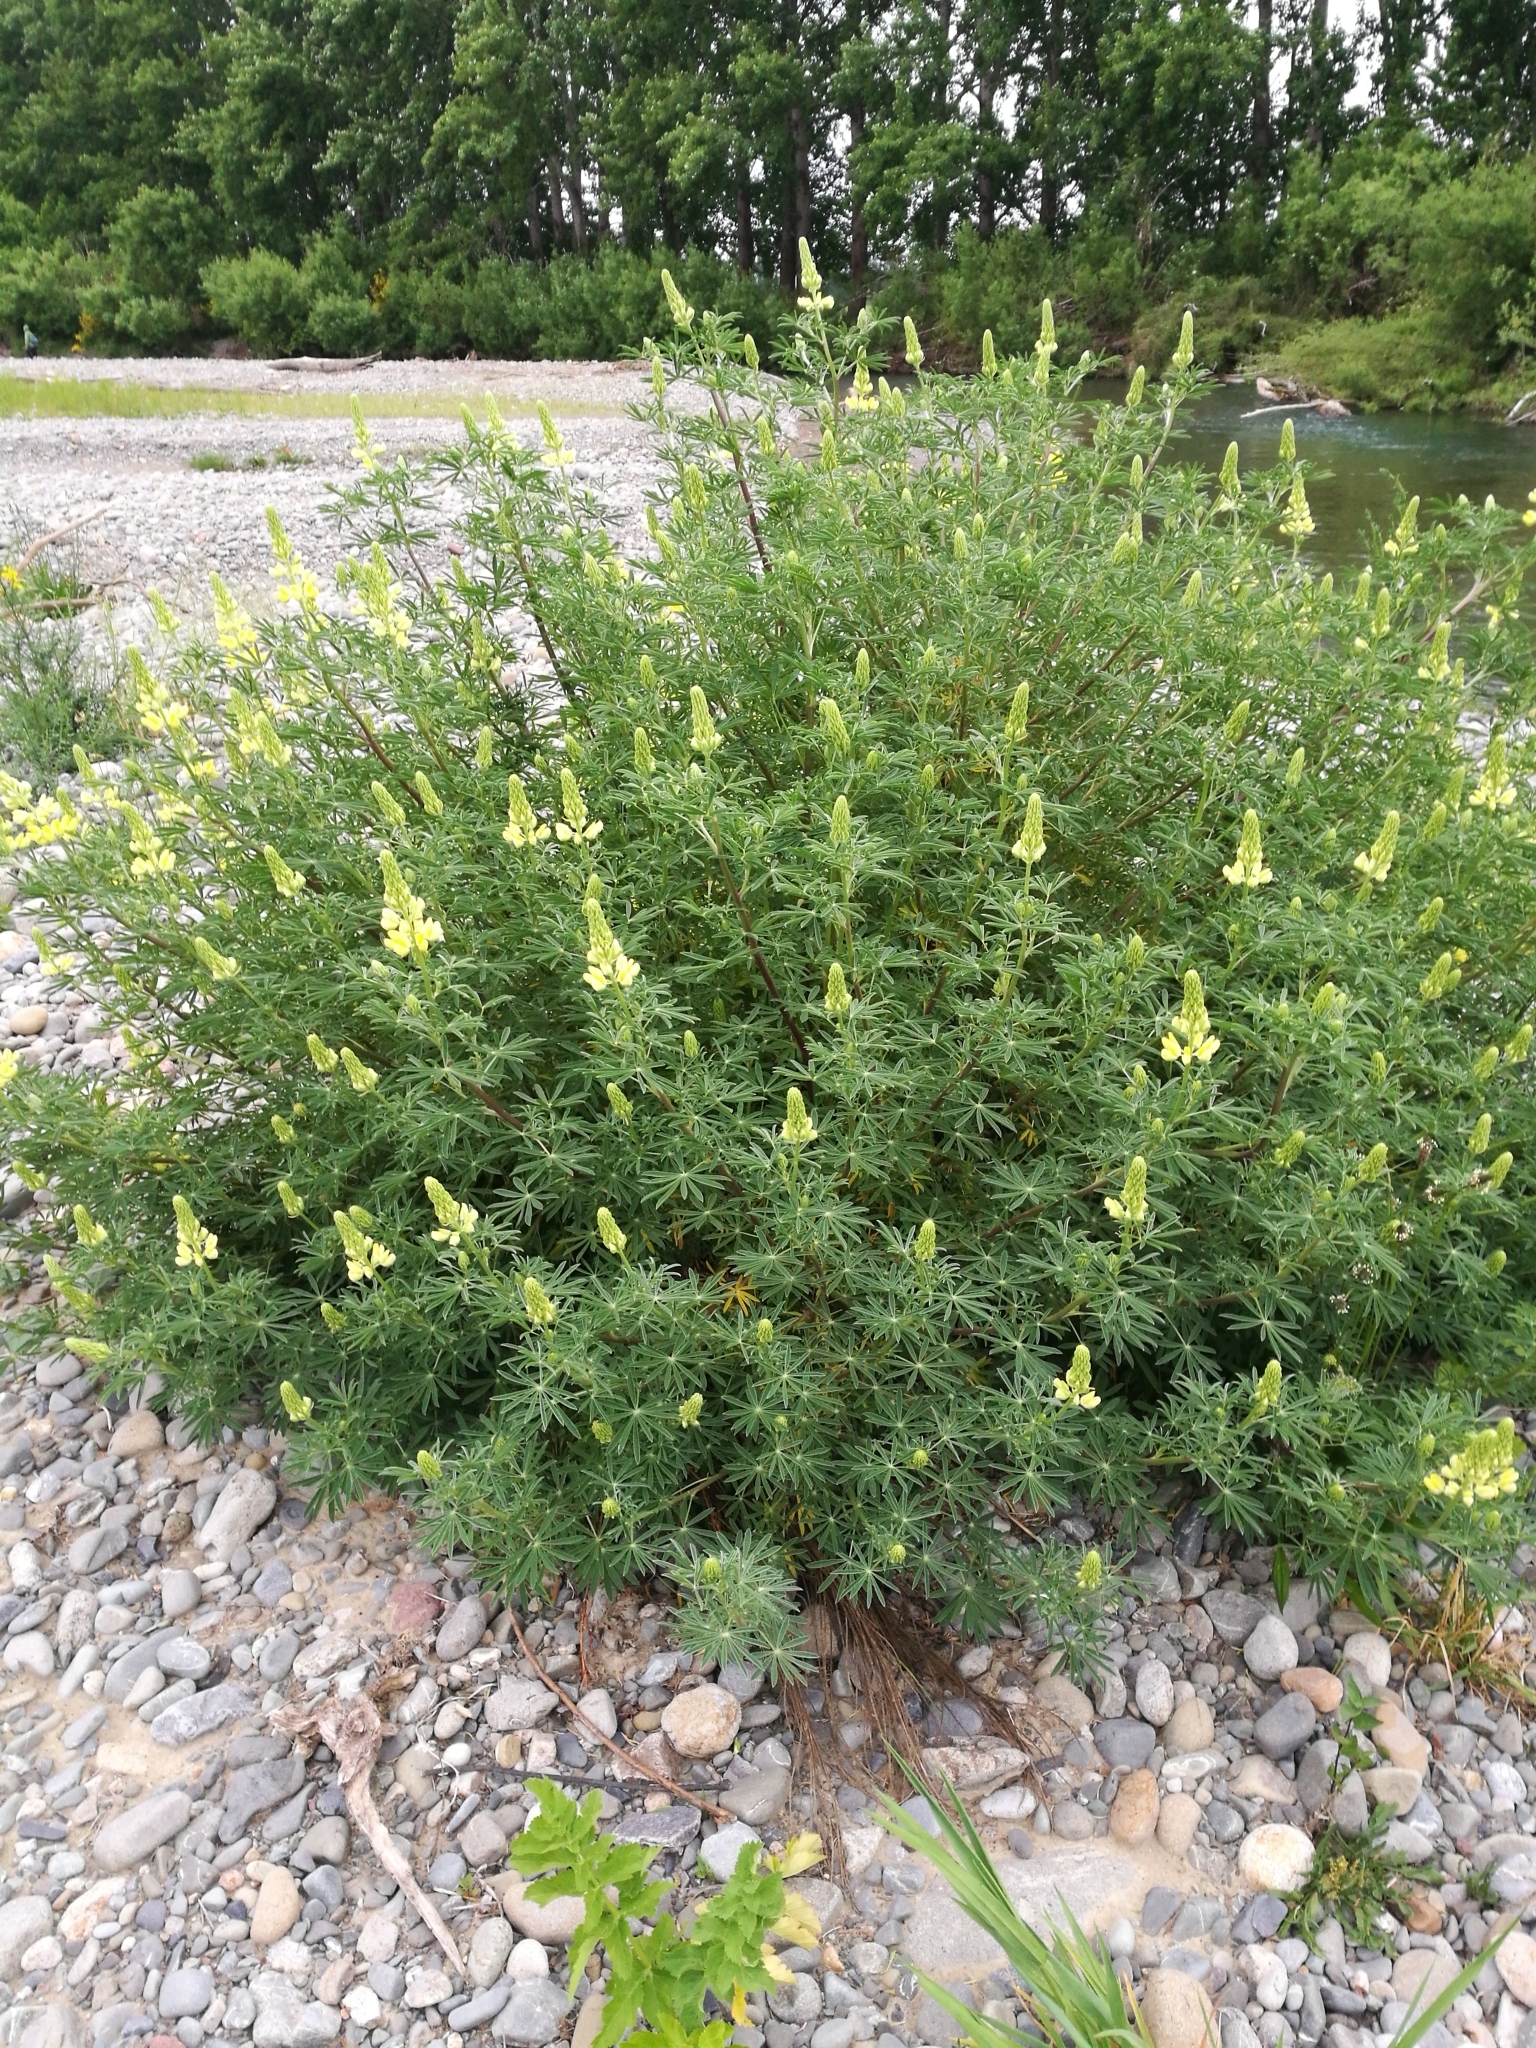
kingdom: Plantae
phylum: Tracheophyta
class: Magnoliopsida
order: Fabales
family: Fabaceae
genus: Lupinus
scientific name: Lupinus arboreus
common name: Yellow bush lupine
